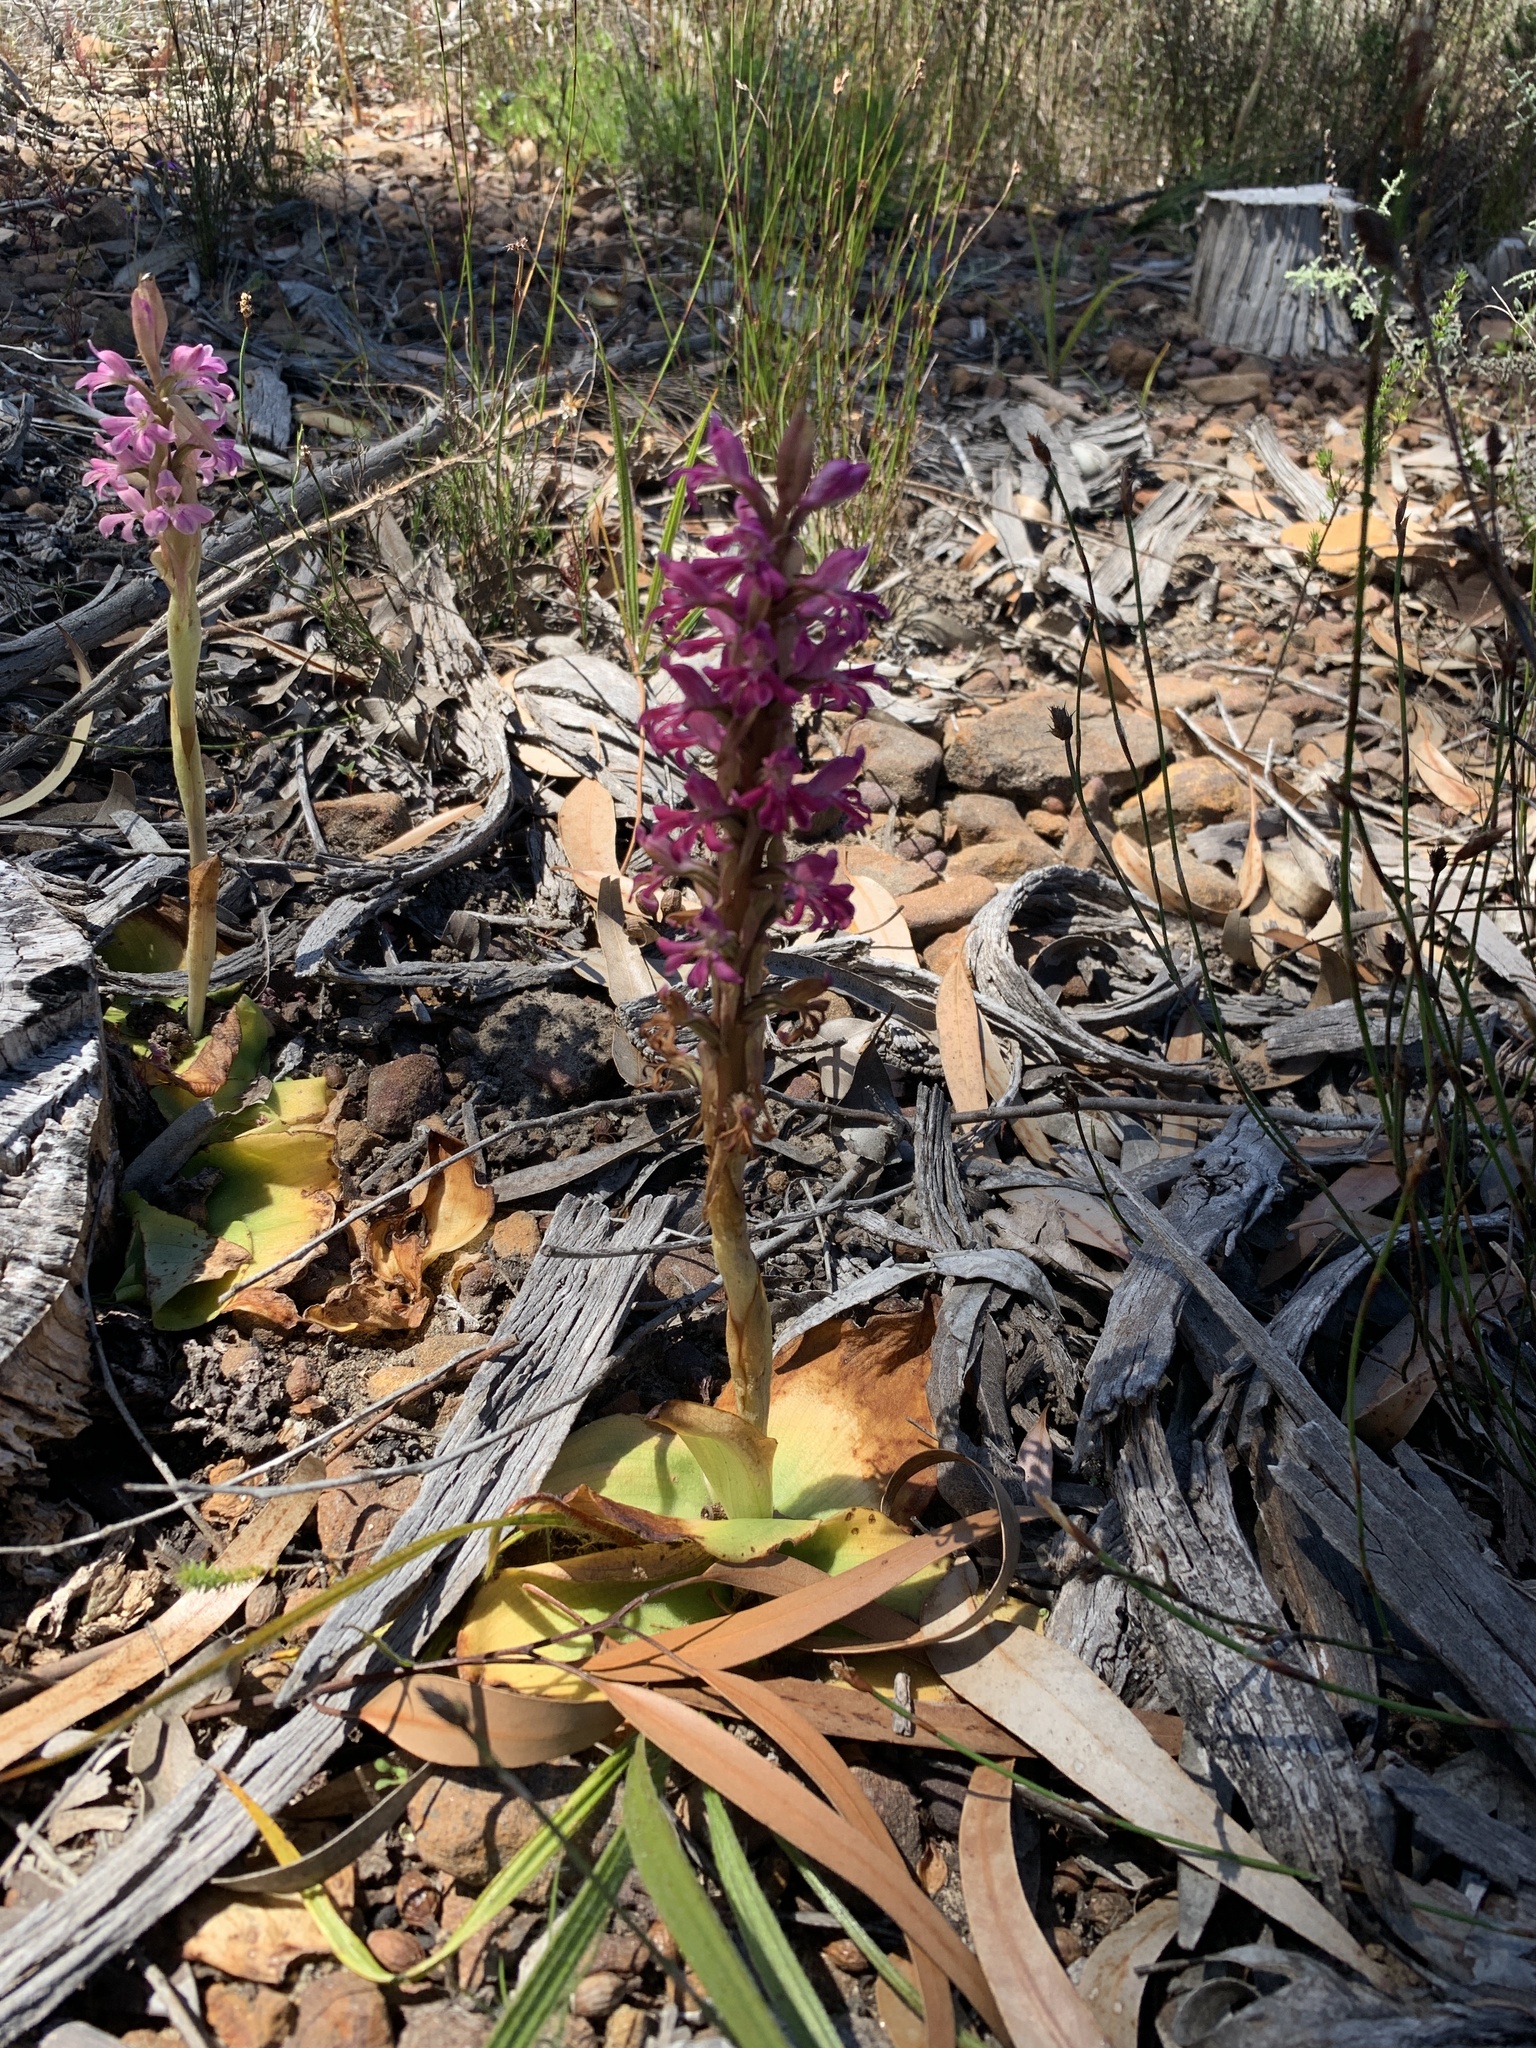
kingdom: Plantae
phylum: Tracheophyta
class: Liliopsida
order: Asparagales
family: Orchidaceae
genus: Satyrium
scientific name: Satyrium erectum
